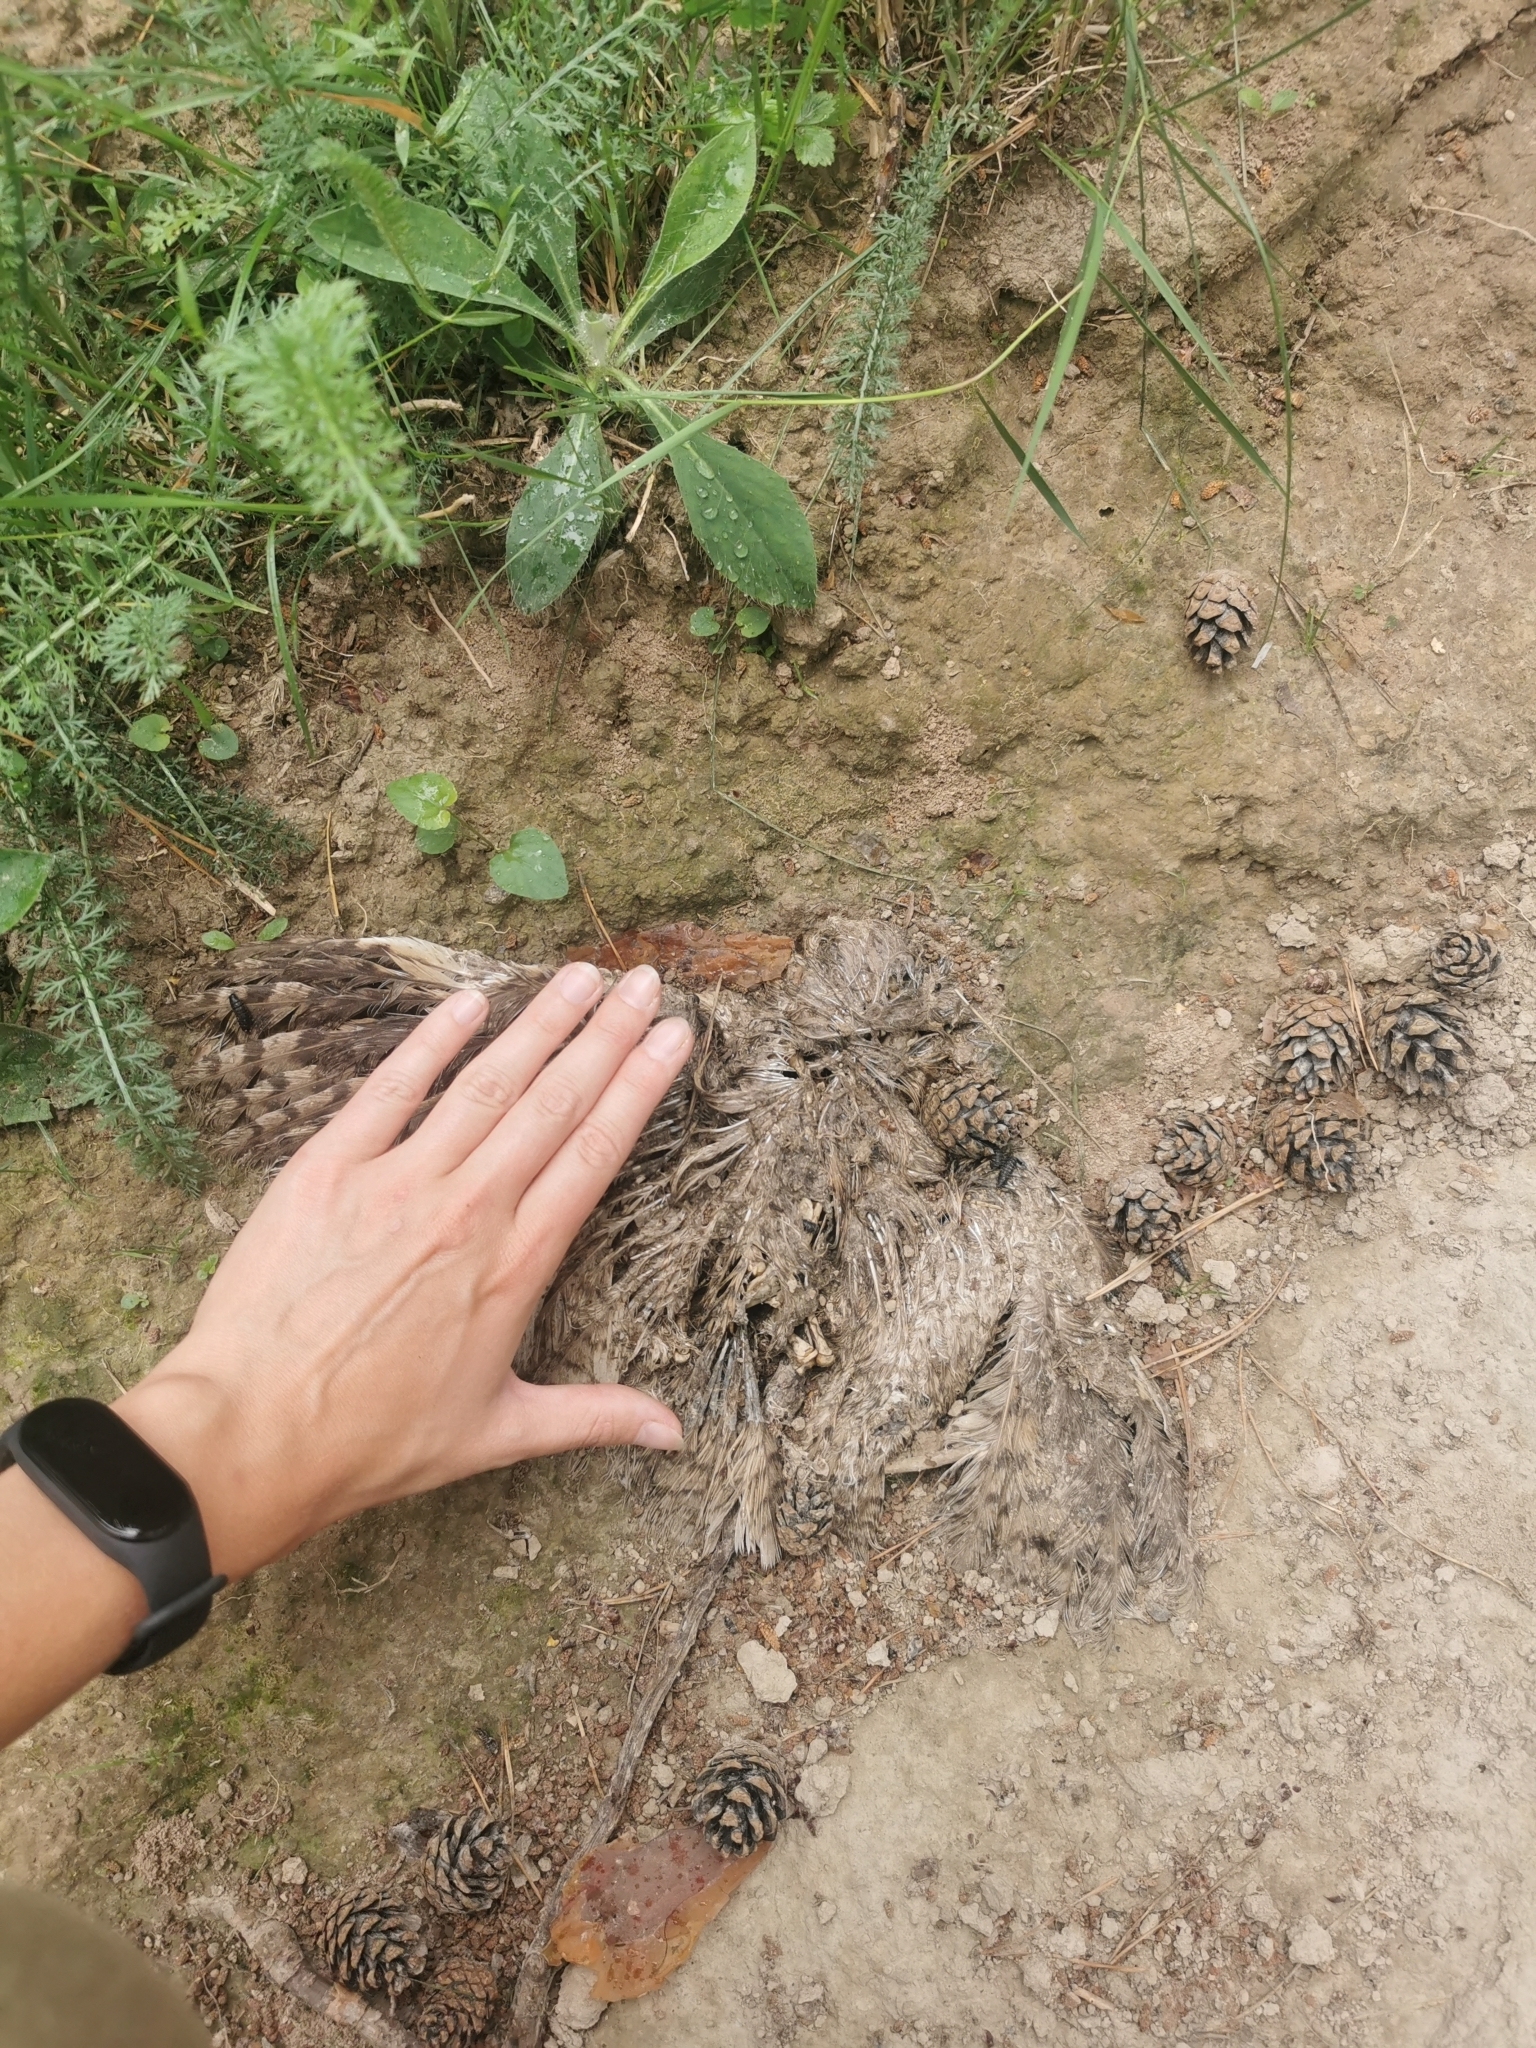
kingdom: Animalia
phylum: Chordata
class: Aves
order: Strigiformes
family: Strigidae
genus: Asio
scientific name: Asio otus
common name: Long-eared owl
